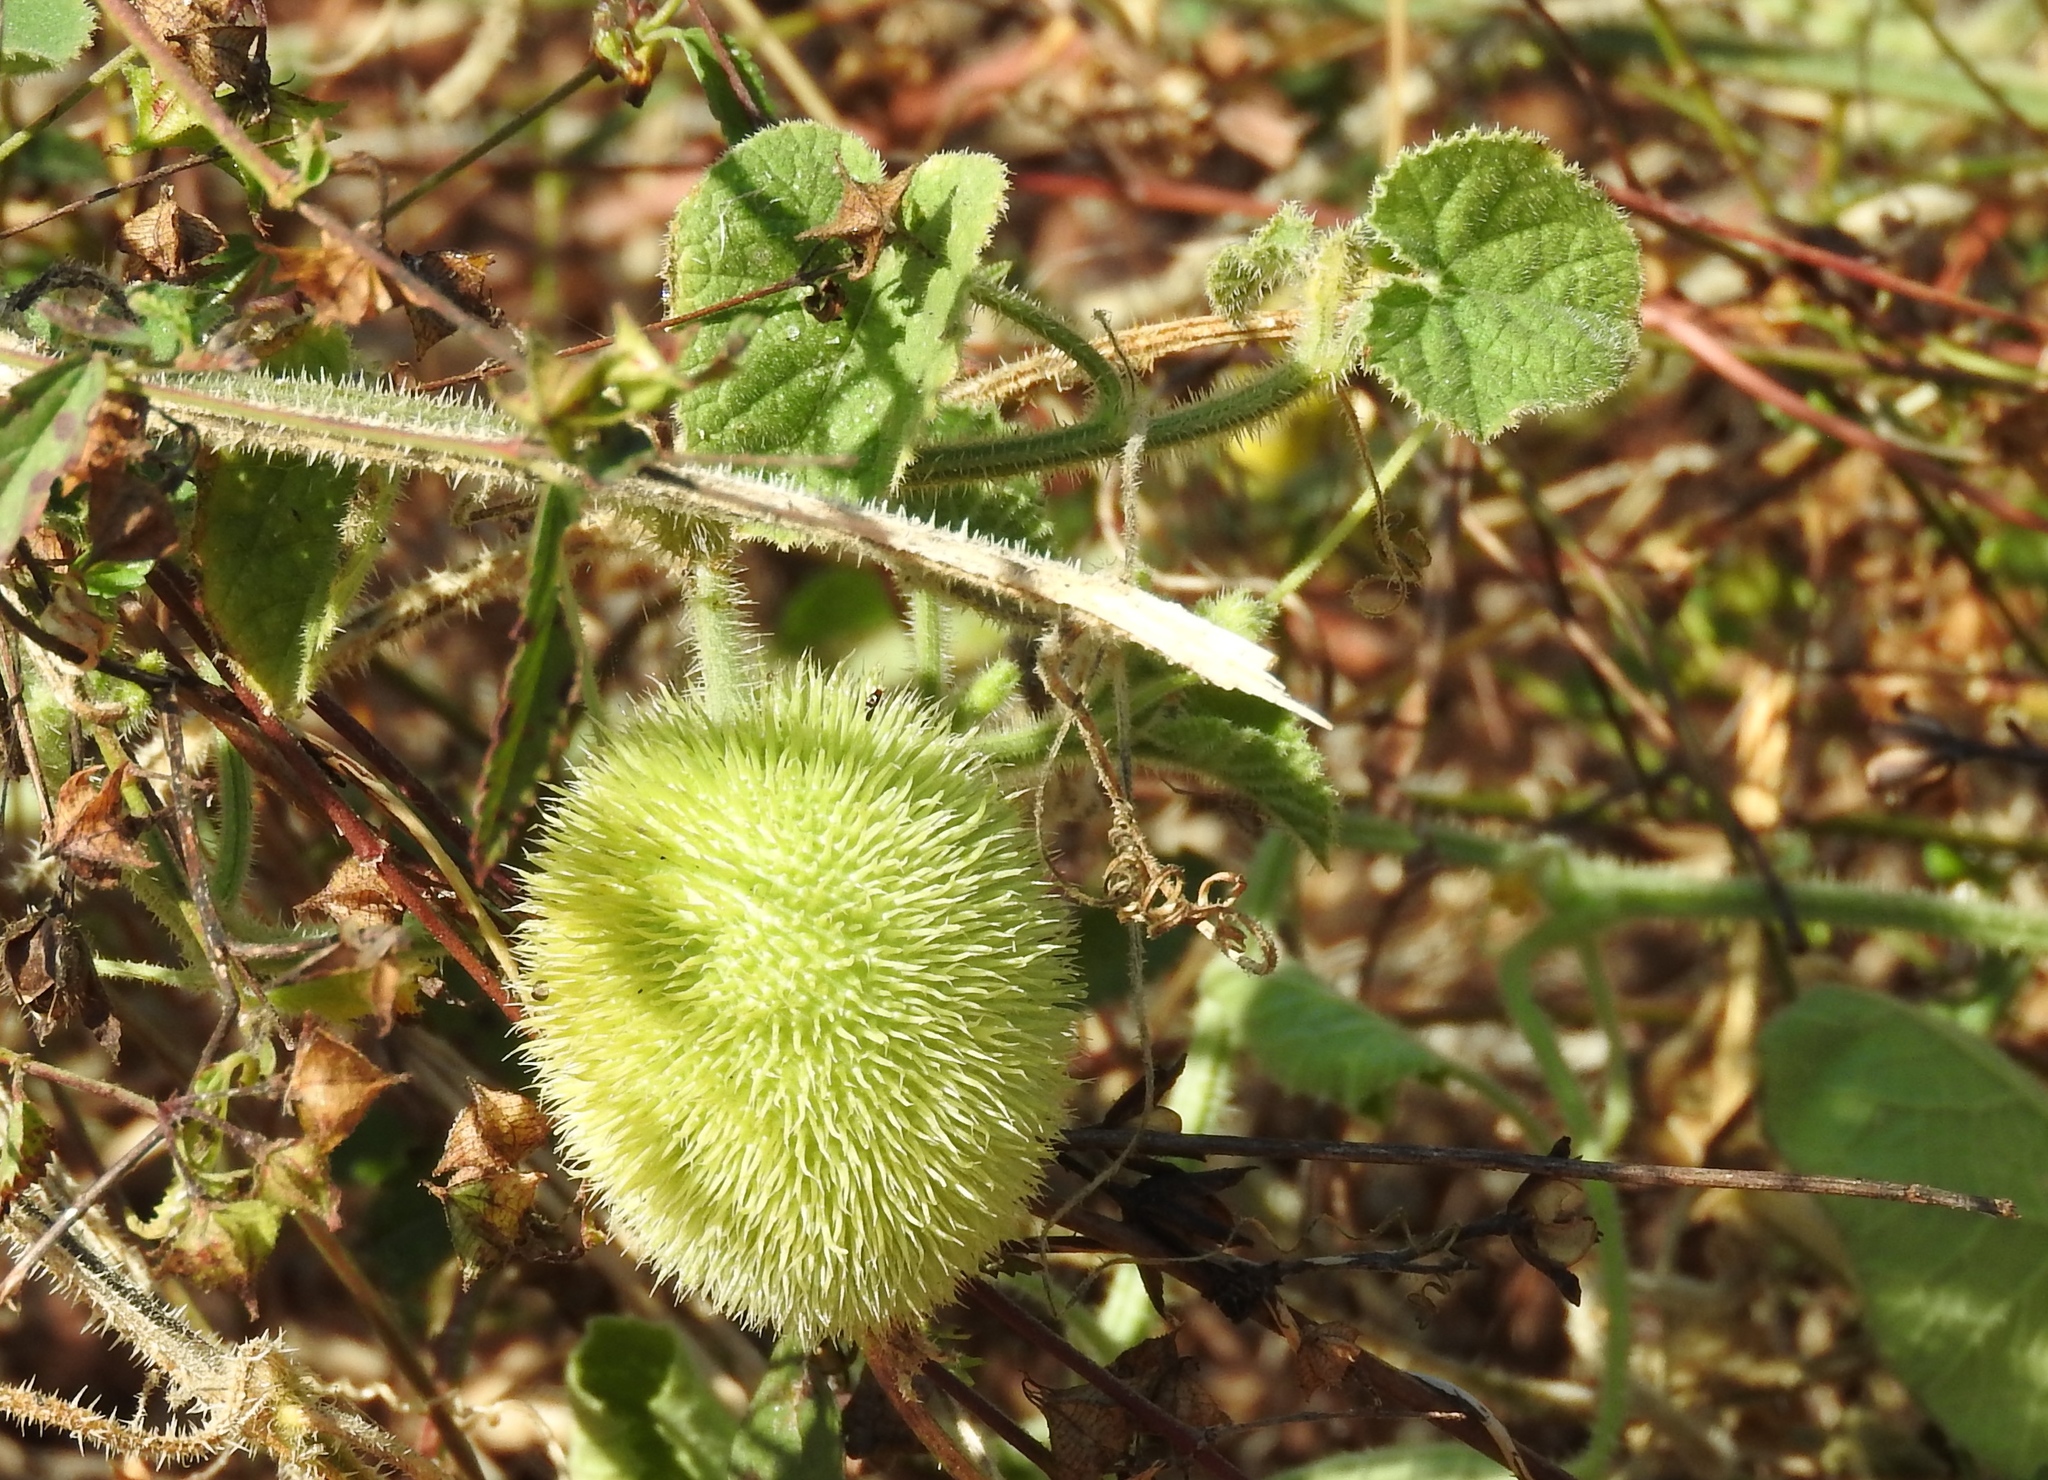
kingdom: Plantae
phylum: Tracheophyta
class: Magnoliopsida
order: Cucurbitales
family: Cucurbitaceae
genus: Cucumis
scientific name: Cucumis dipsaceus
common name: Hedgehog gourd
